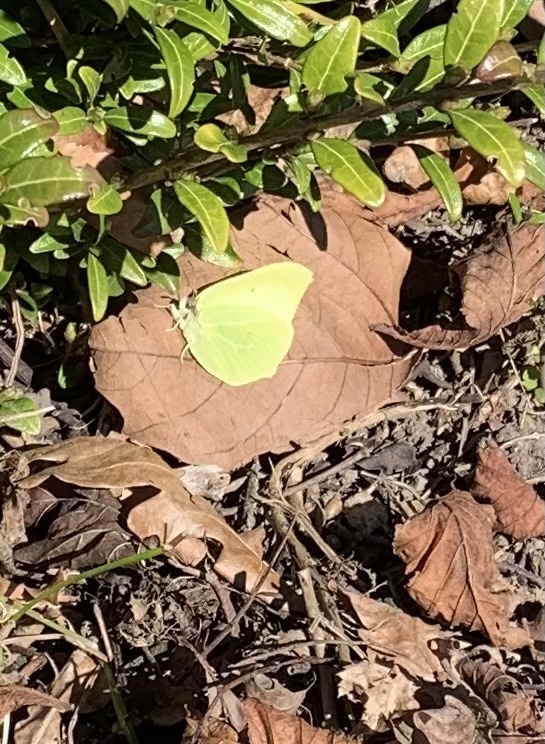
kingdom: Animalia
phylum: Arthropoda
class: Insecta
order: Lepidoptera
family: Pieridae
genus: Gonepteryx
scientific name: Gonepteryx rhamni
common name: Brimstone
